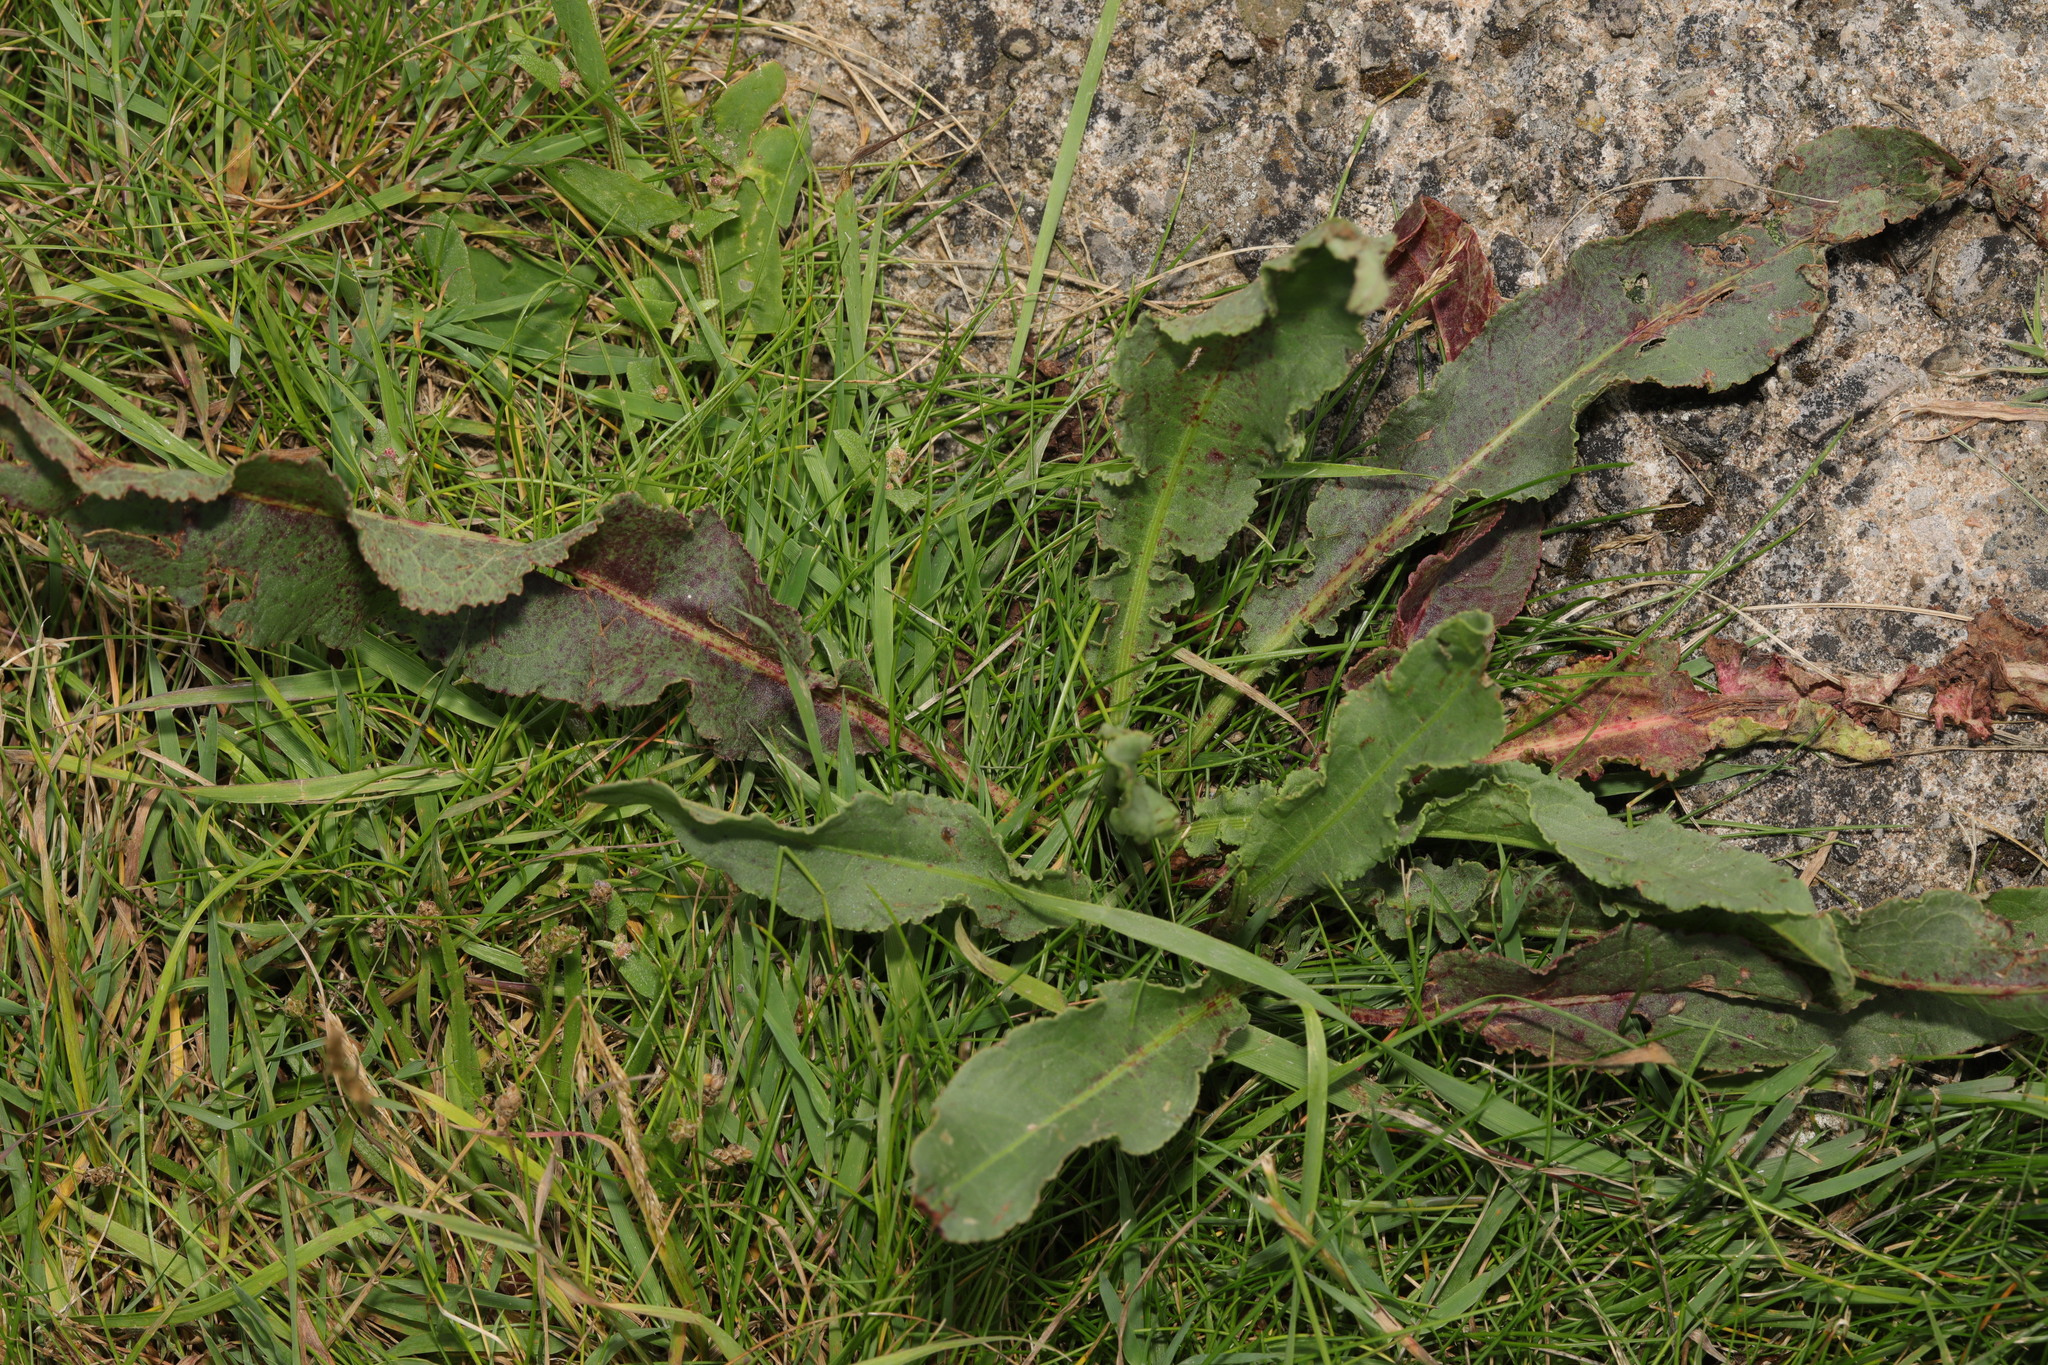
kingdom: Plantae
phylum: Tracheophyta
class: Magnoliopsida
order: Caryophyllales
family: Polygonaceae
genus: Rumex
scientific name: Rumex crispus
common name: Curled dock
